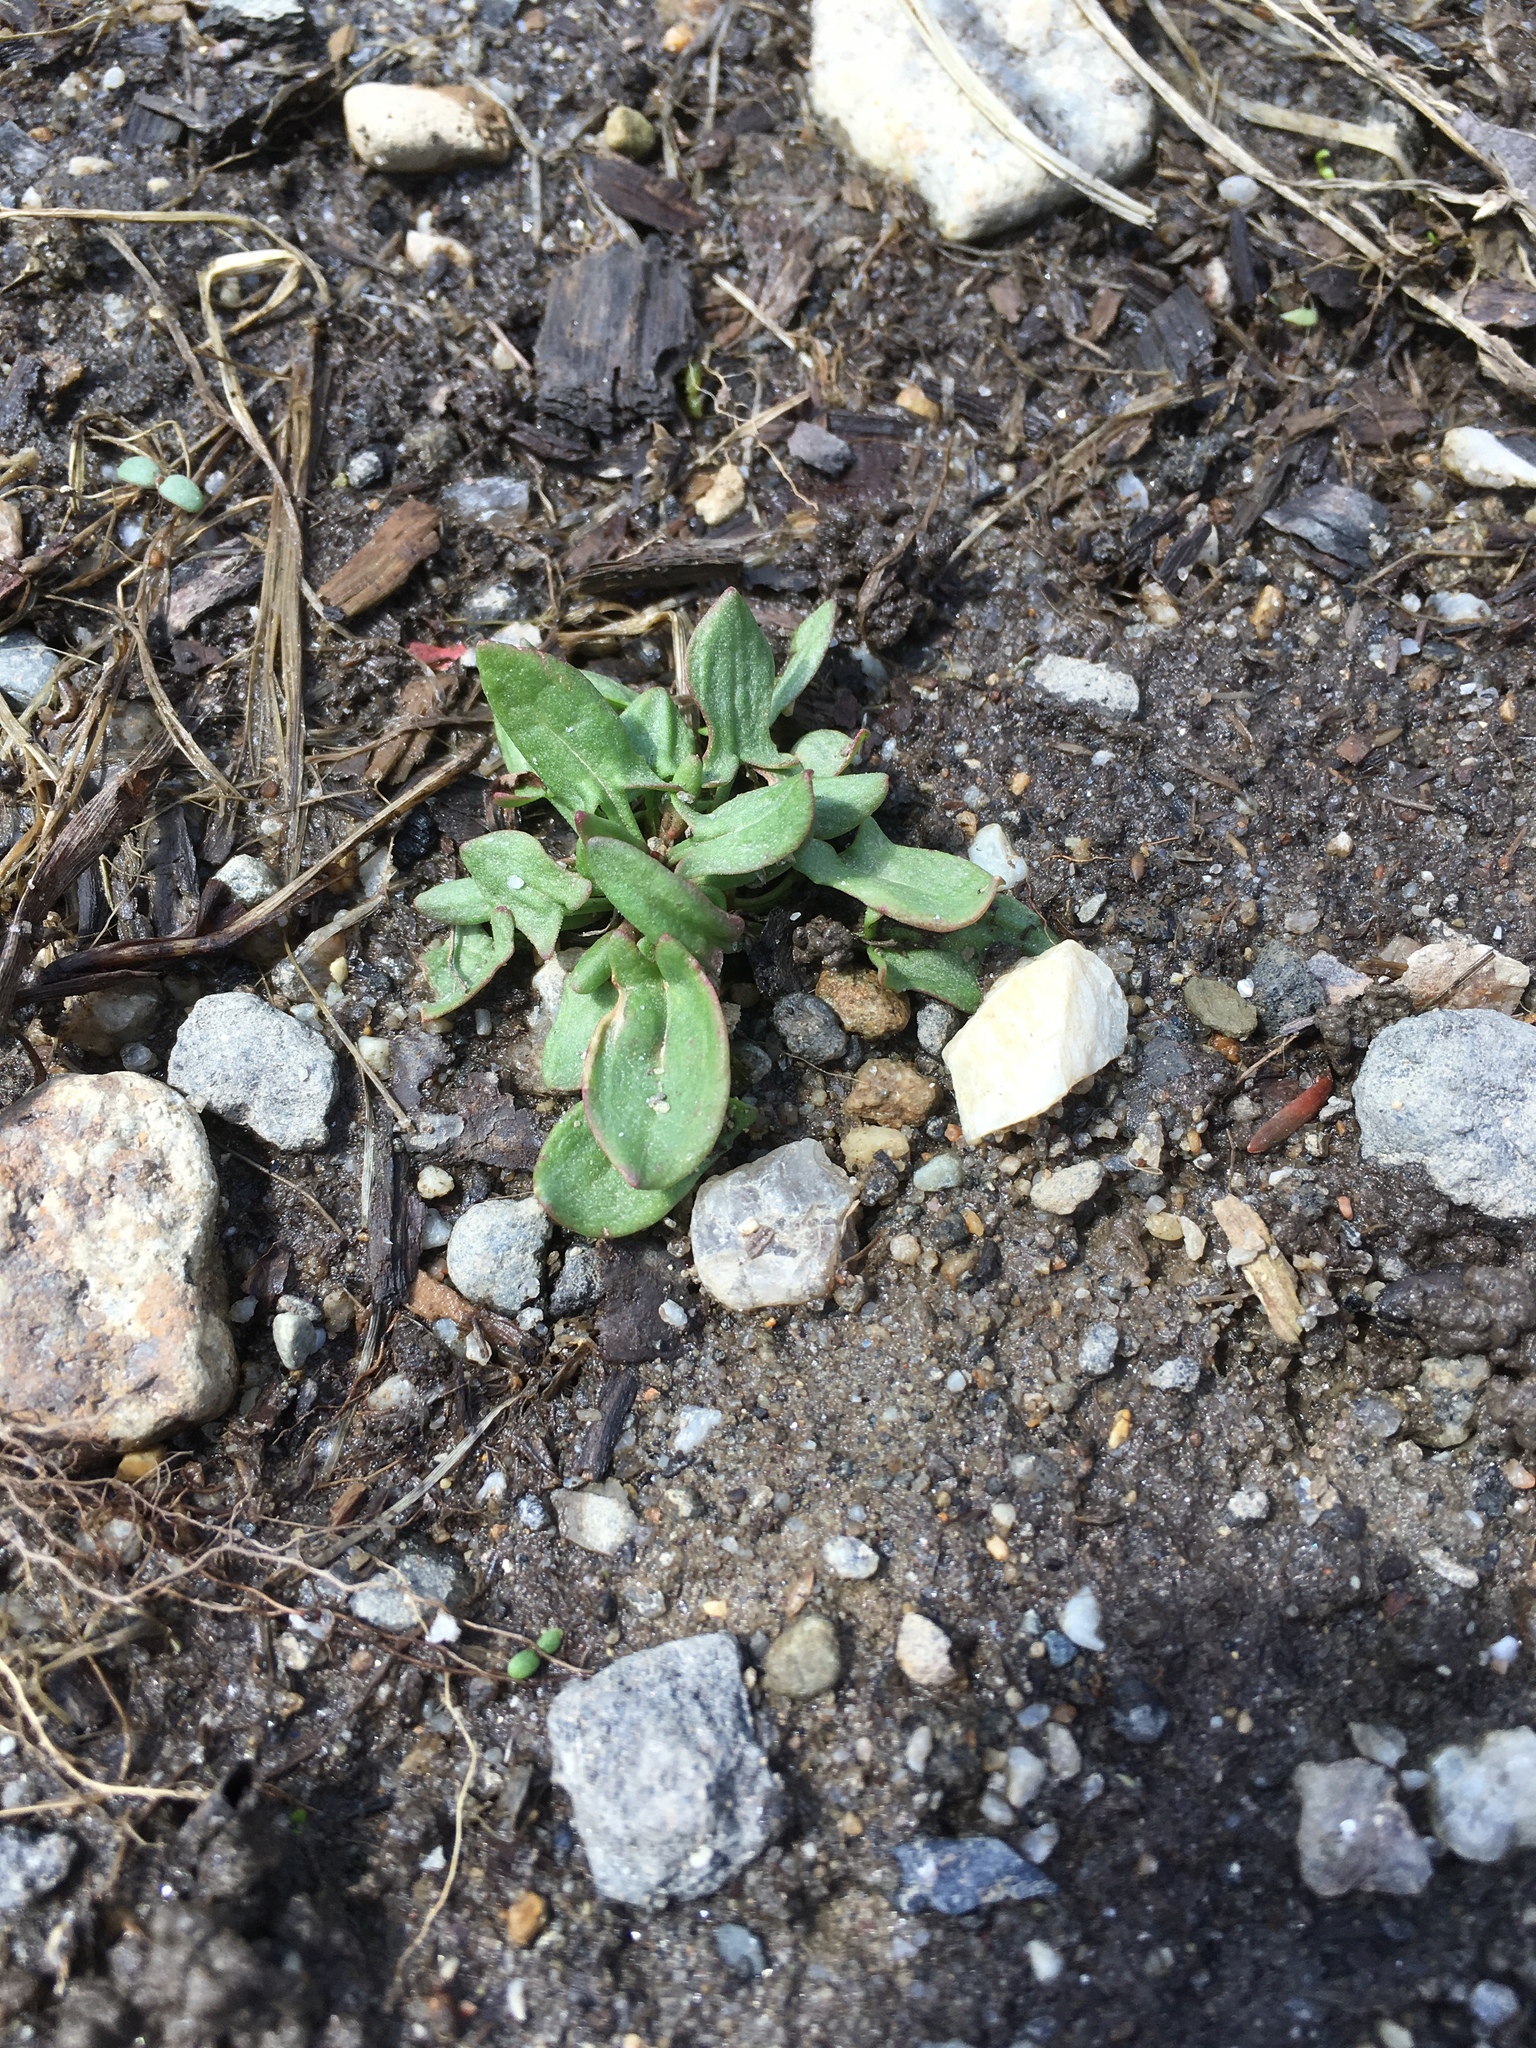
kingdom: Plantae
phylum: Tracheophyta
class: Magnoliopsida
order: Caryophyllales
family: Polygonaceae
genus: Rumex
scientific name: Rumex acetosella
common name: Common sheep sorrel
